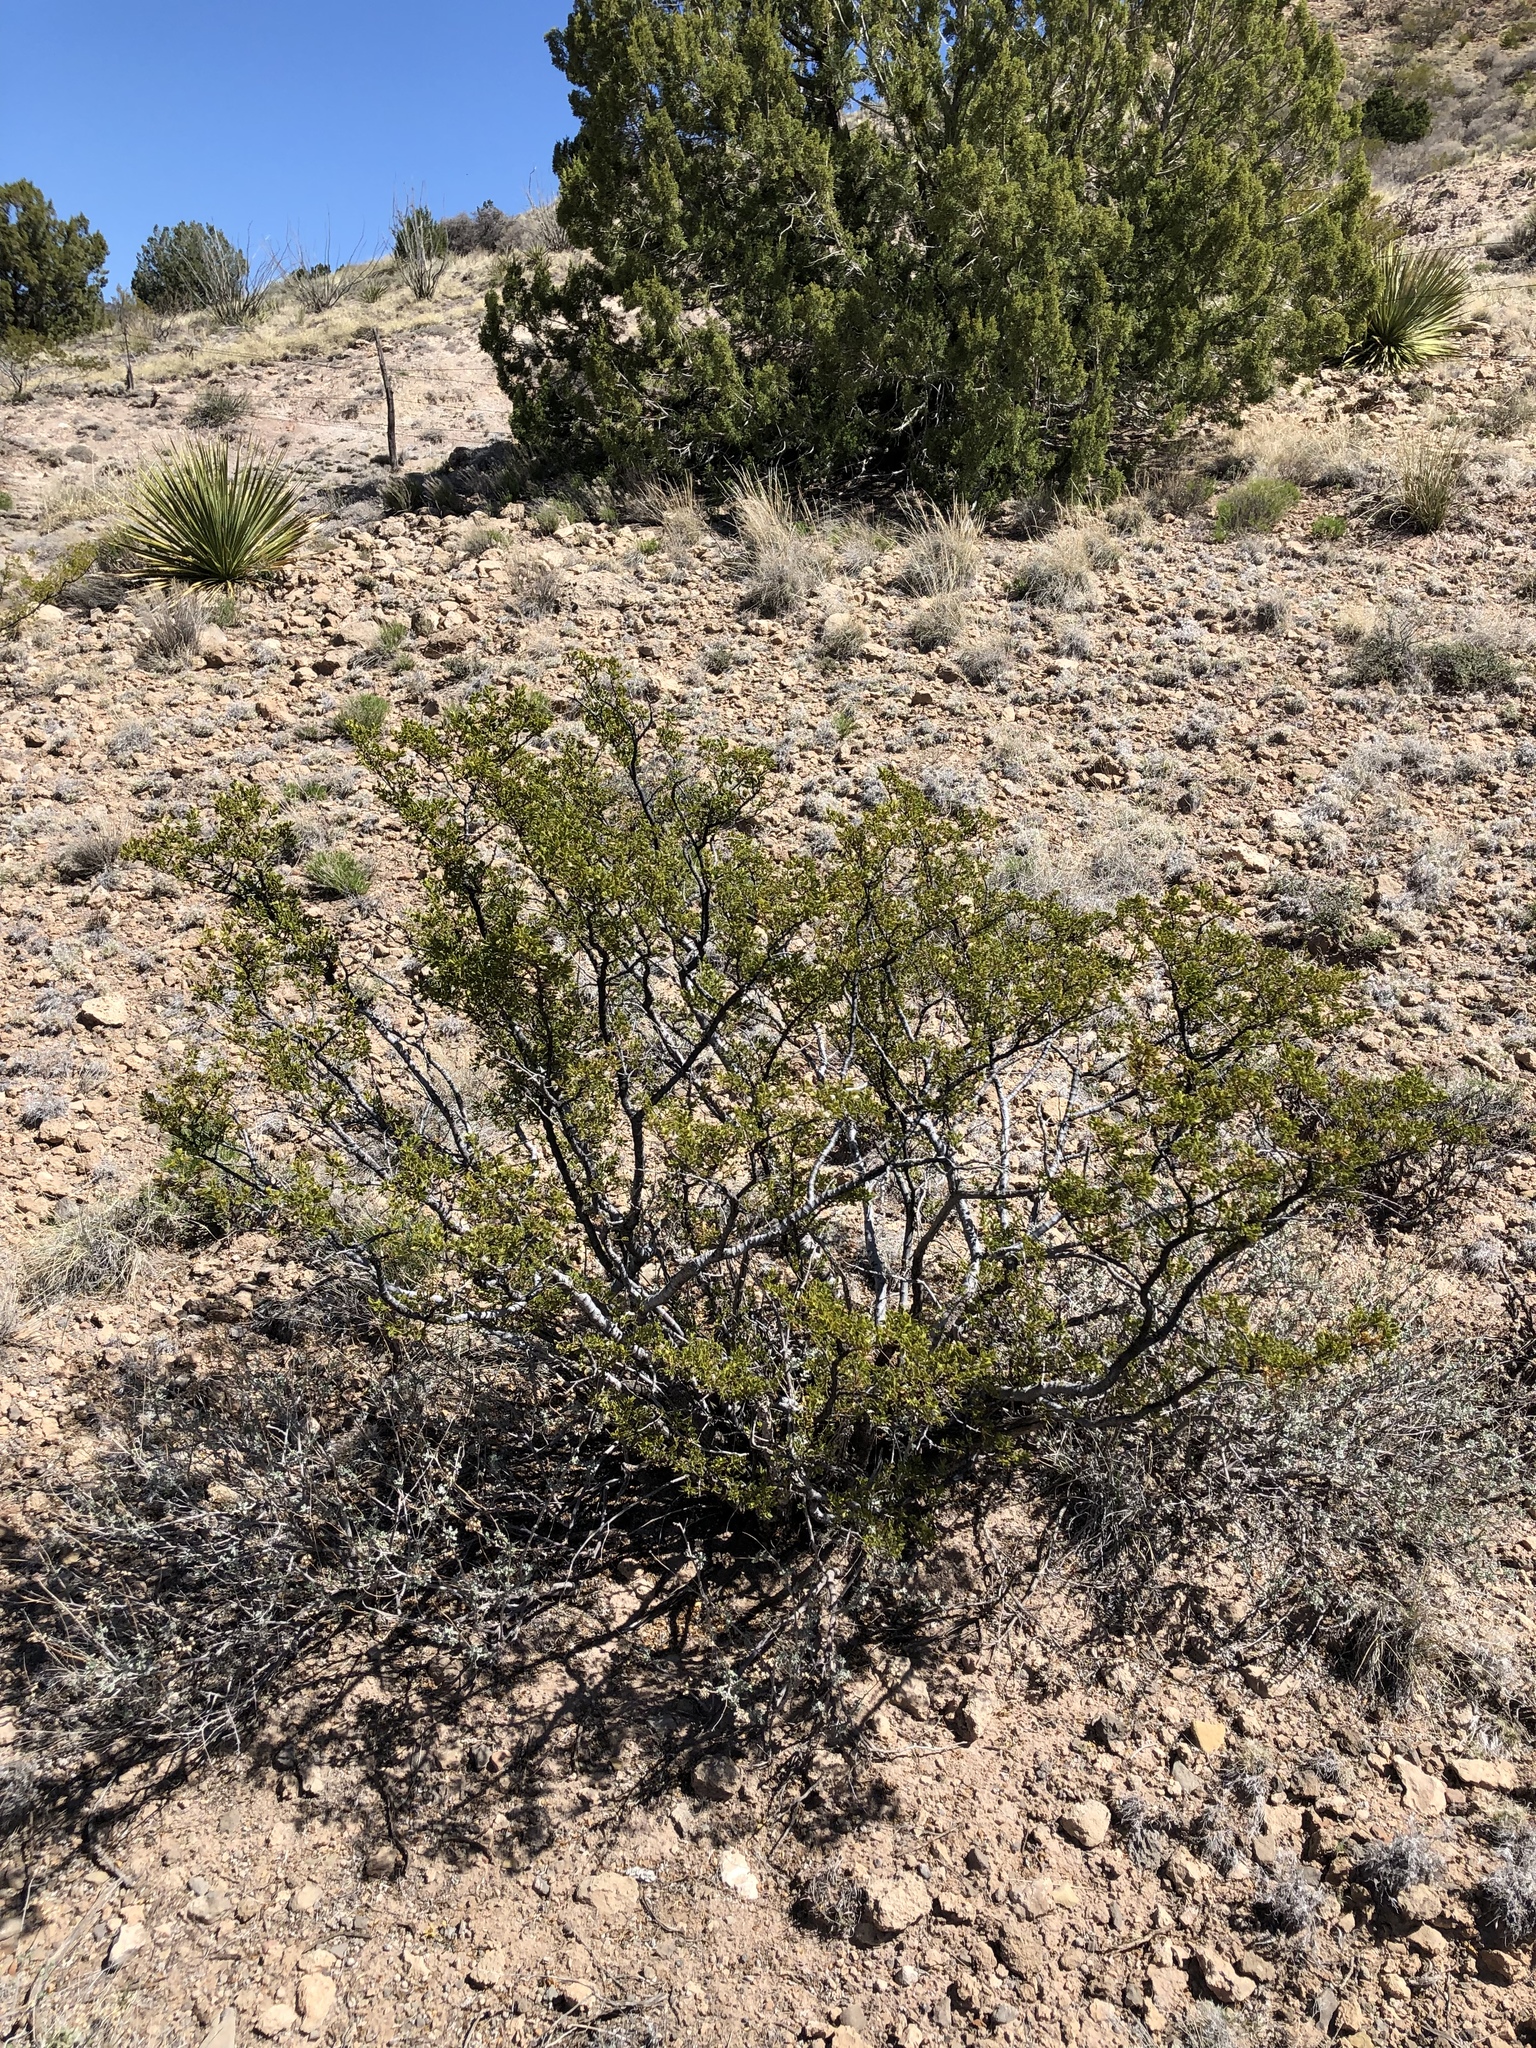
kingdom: Plantae
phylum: Tracheophyta
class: Magnoliopsida
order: Zygophyllales
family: Zygophyllaceae
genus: Larrea
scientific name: Larrea tridentata
